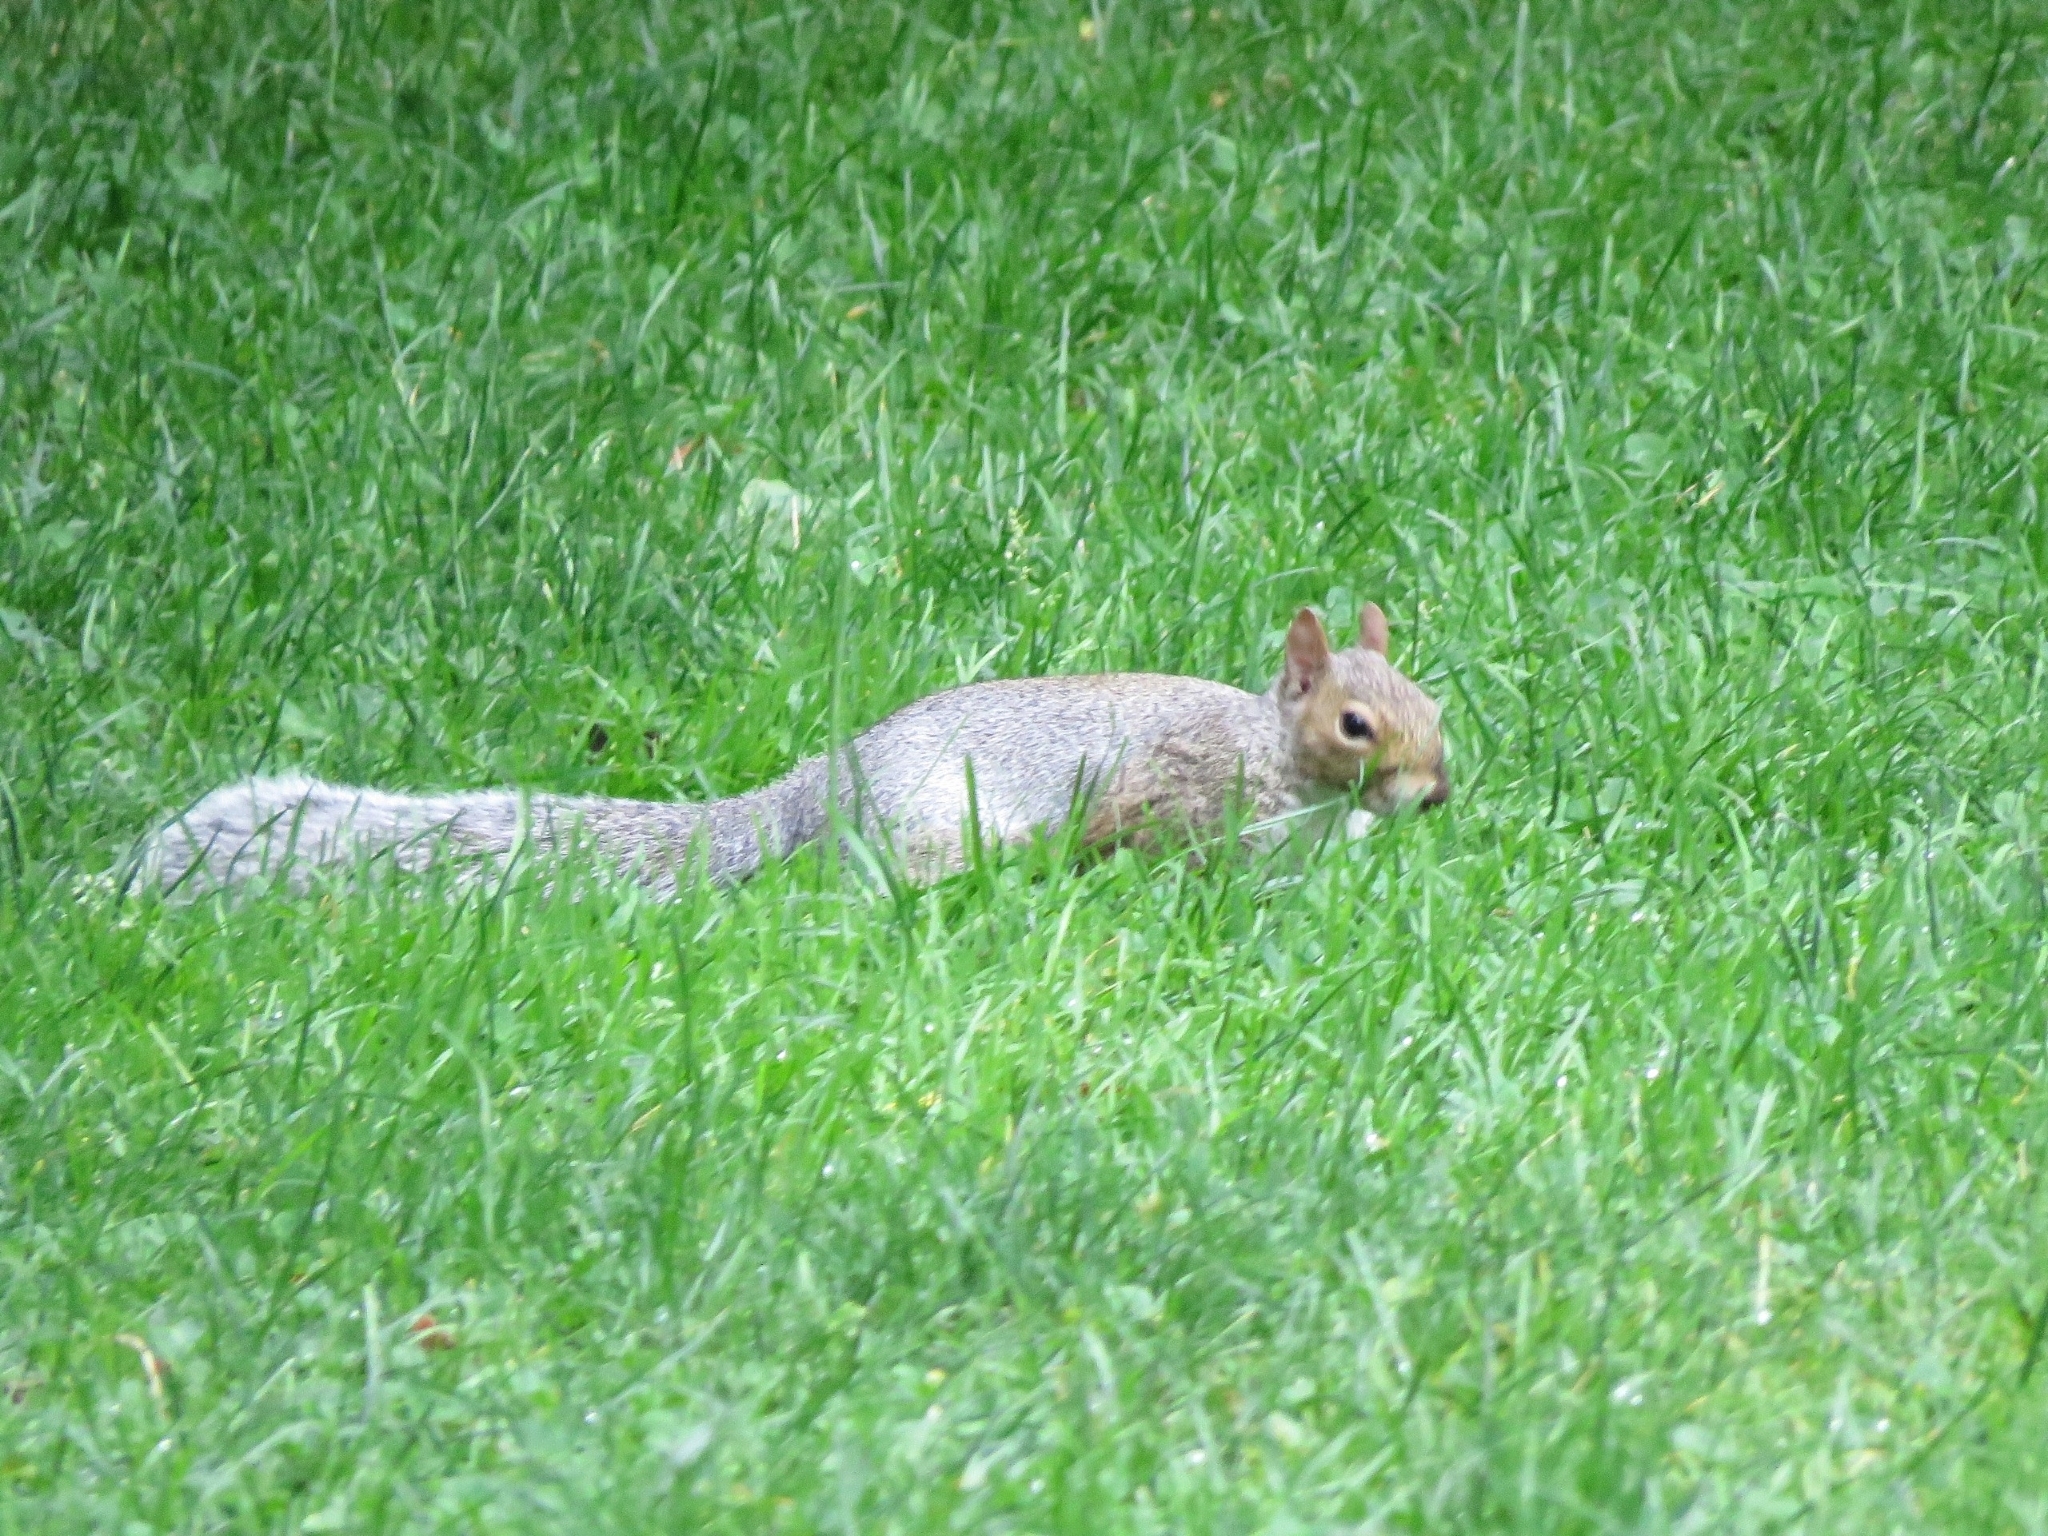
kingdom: Animalia
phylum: Chordata
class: Mammalia
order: Rodentia
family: Sciuridae
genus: Sciurus
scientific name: Sciurus carolinensis
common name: Eastern gray squirrel
